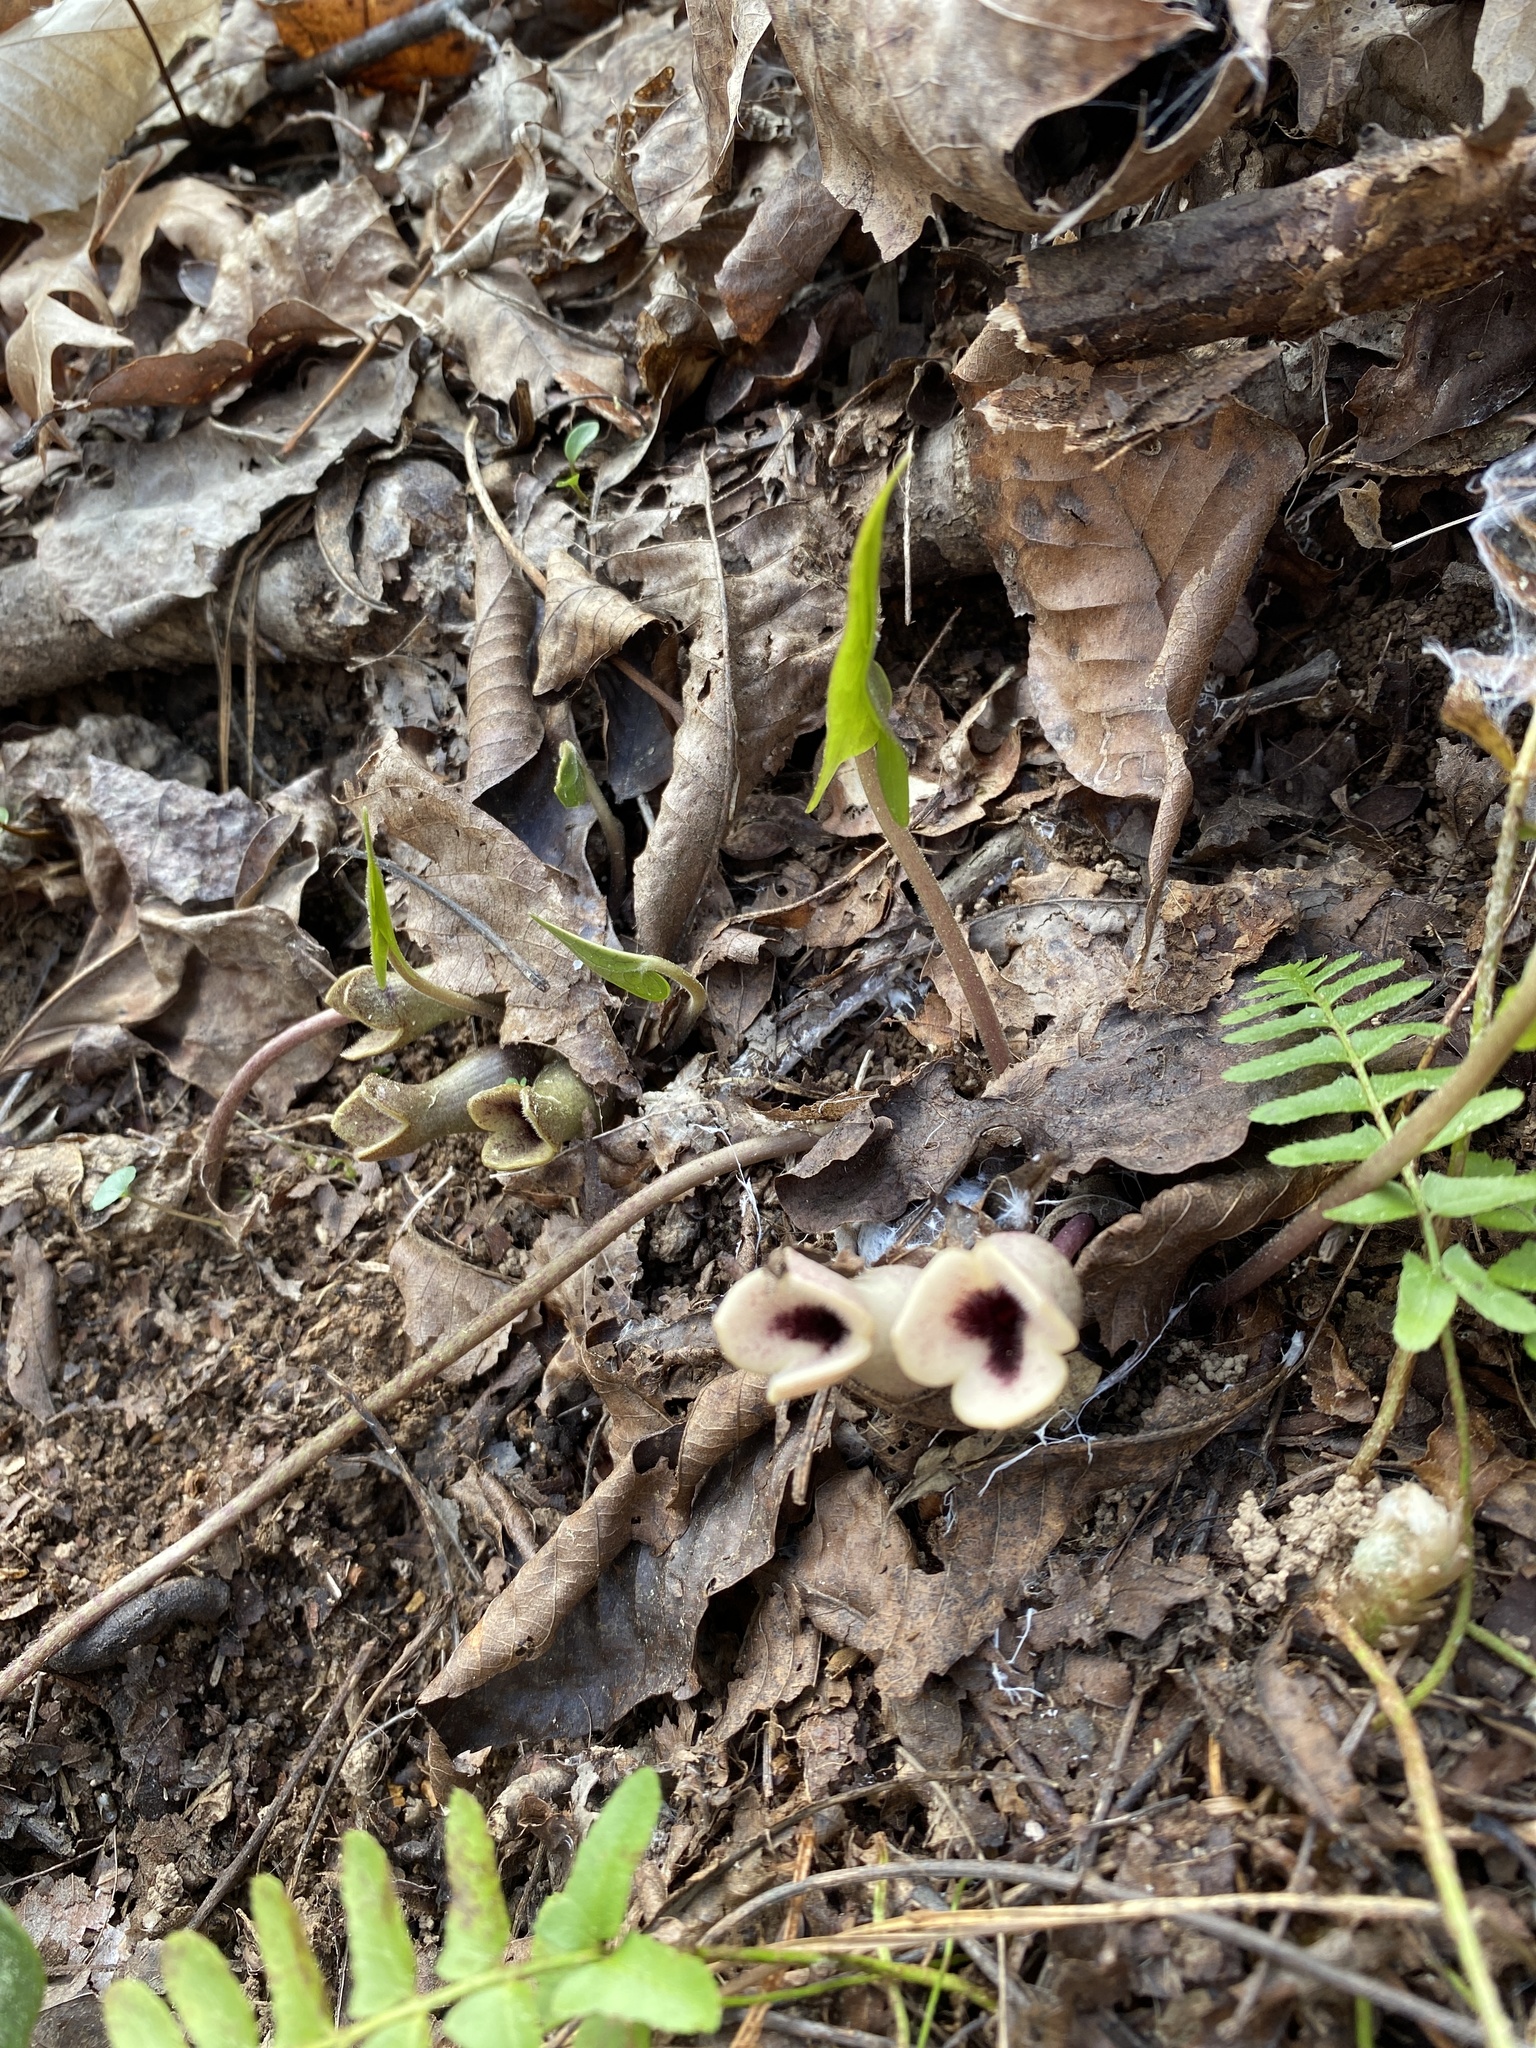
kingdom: Plantae
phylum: Tracheophyta
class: Magnoliopsida
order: Piperales
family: Aristolochiaceae
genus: Hexastylis
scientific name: Hexastylis arifolia
